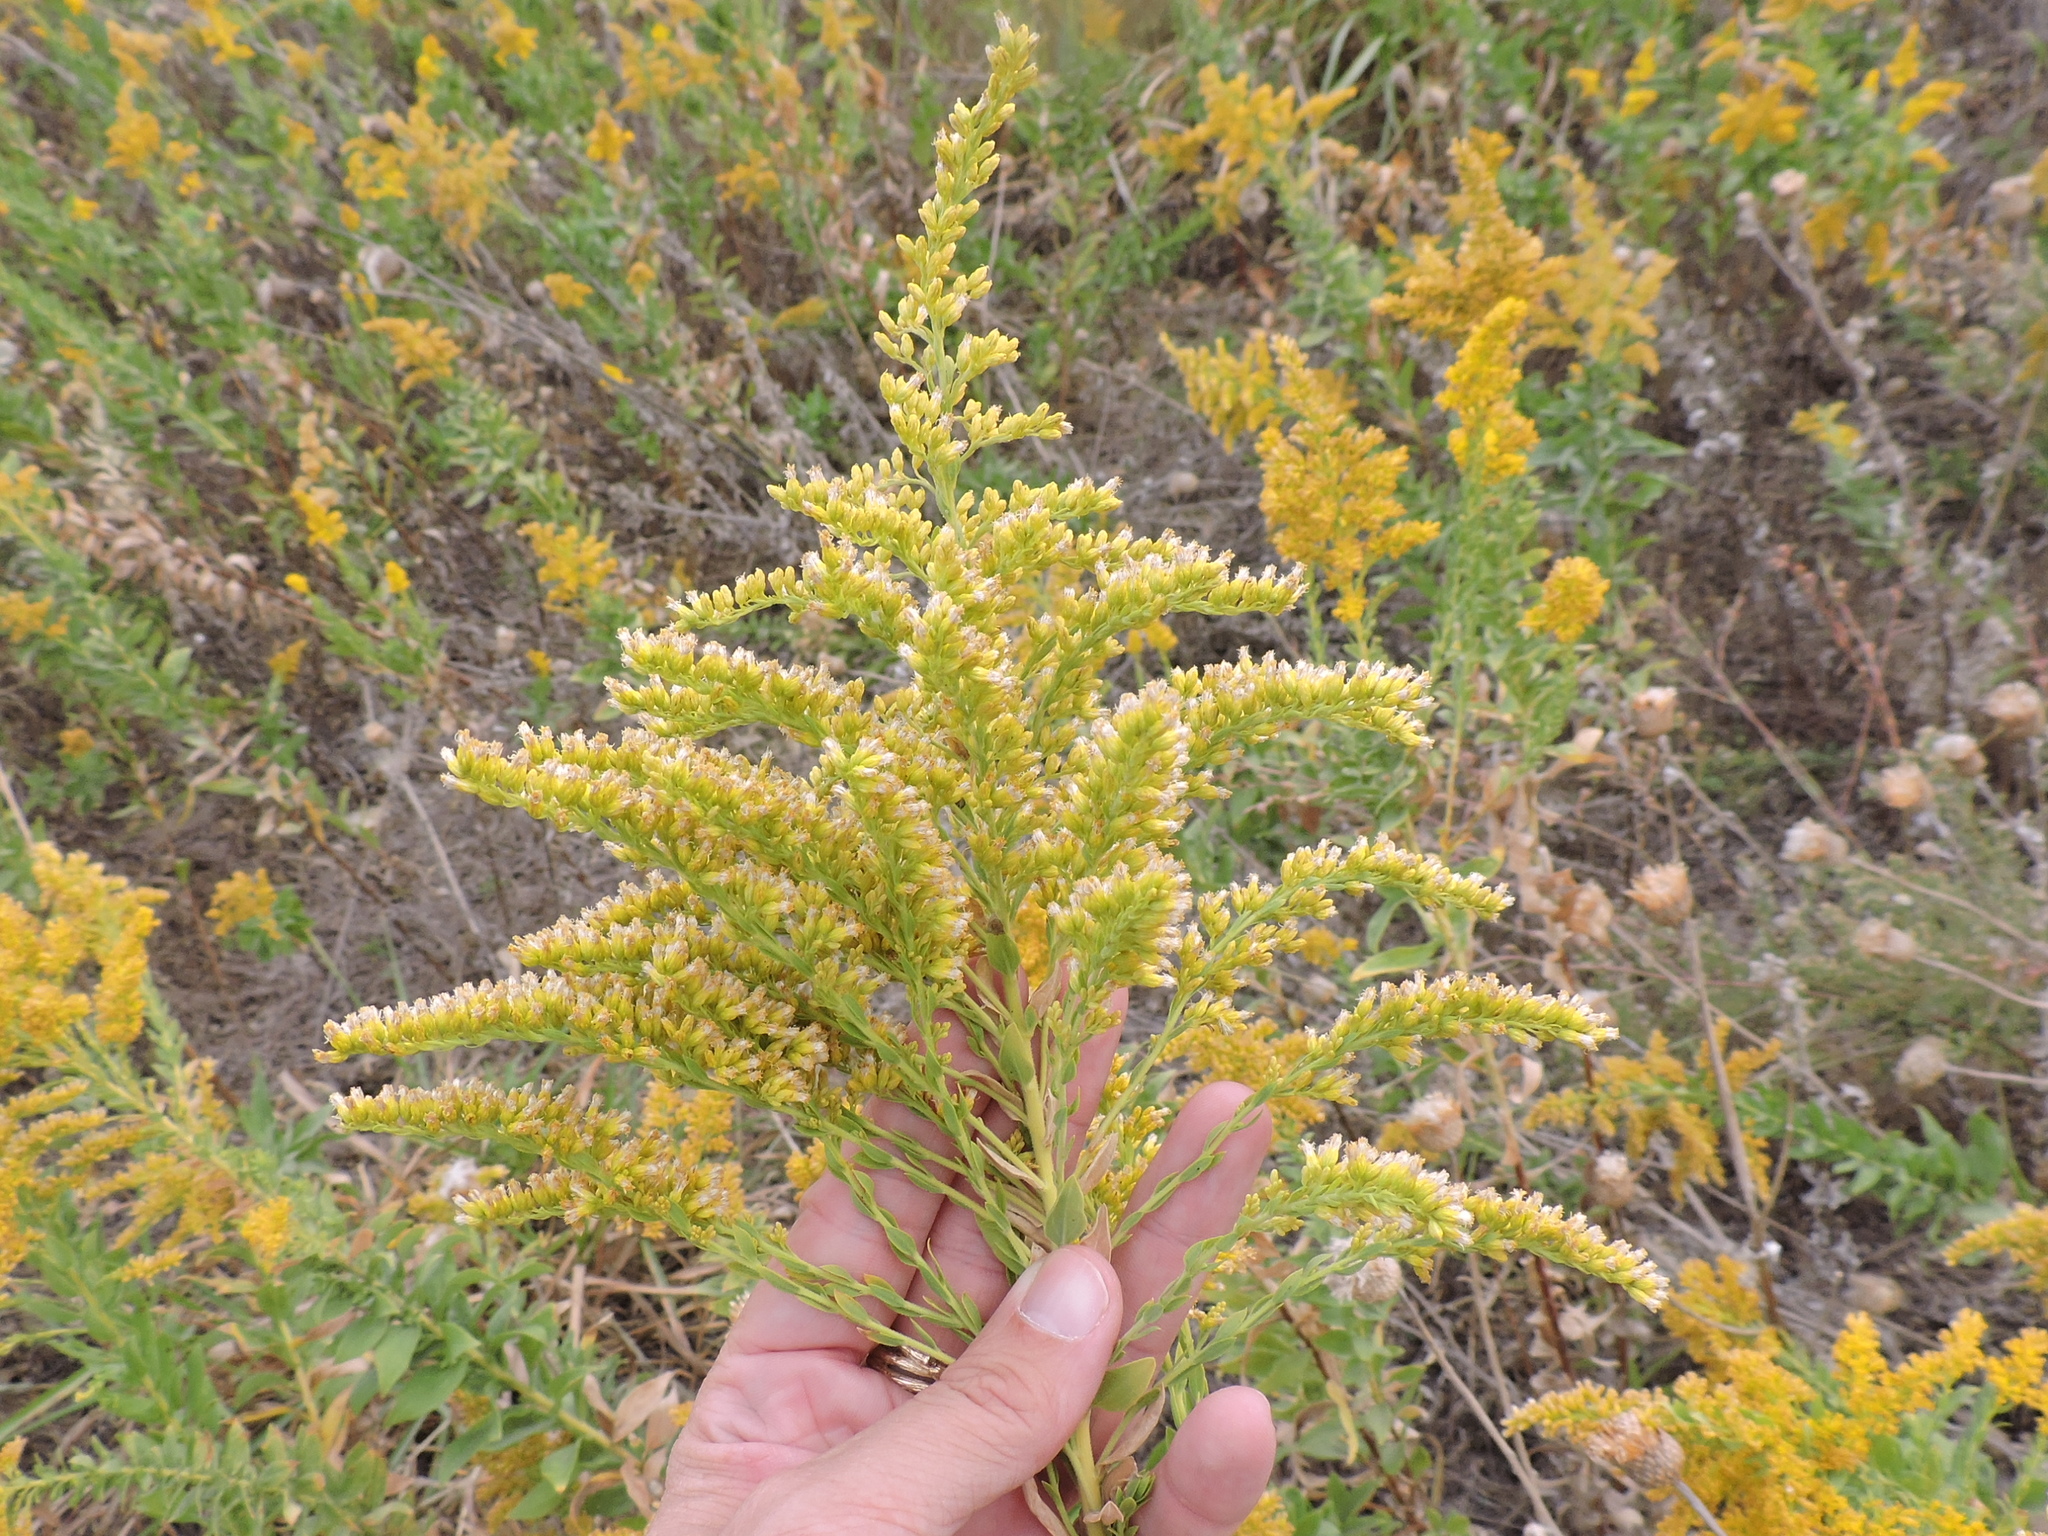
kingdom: Plantae
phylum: Tracheophyta
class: Magnoliopsida
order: Asterales
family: Asteraceae
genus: Solidago
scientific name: Solidago altissima
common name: Late goldenrod
